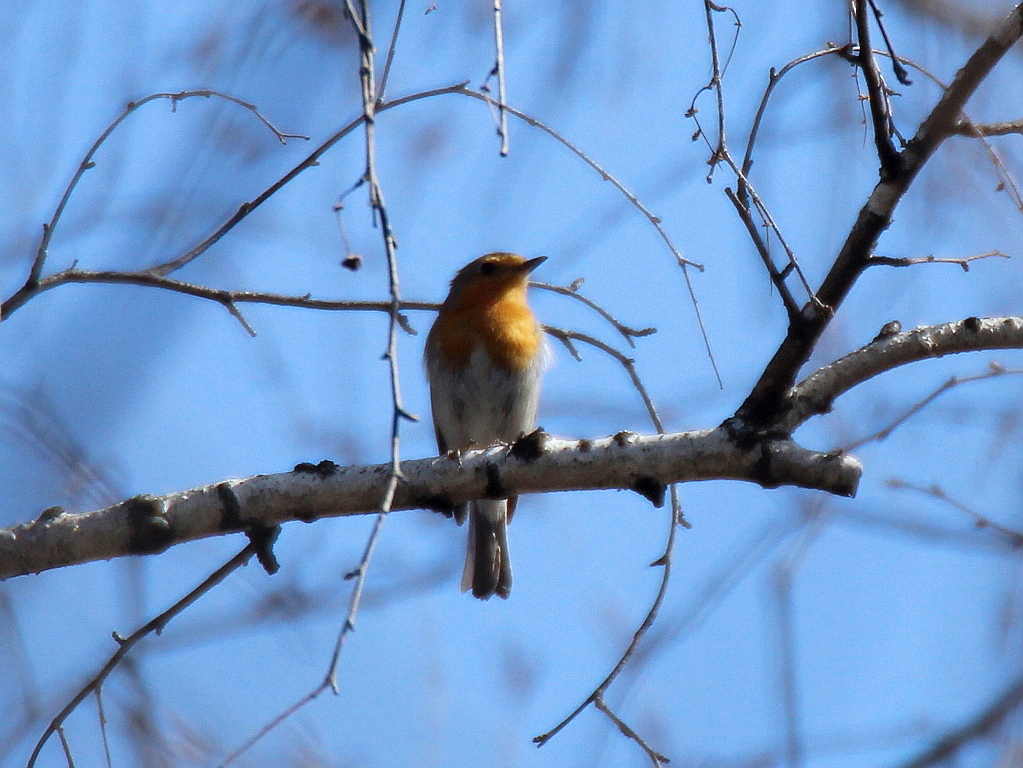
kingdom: Animalia
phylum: Chordata
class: Aves
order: Passeriformes
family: Muscicapidae
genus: Erithacus
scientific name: Erithacus rubecula
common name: European robin
